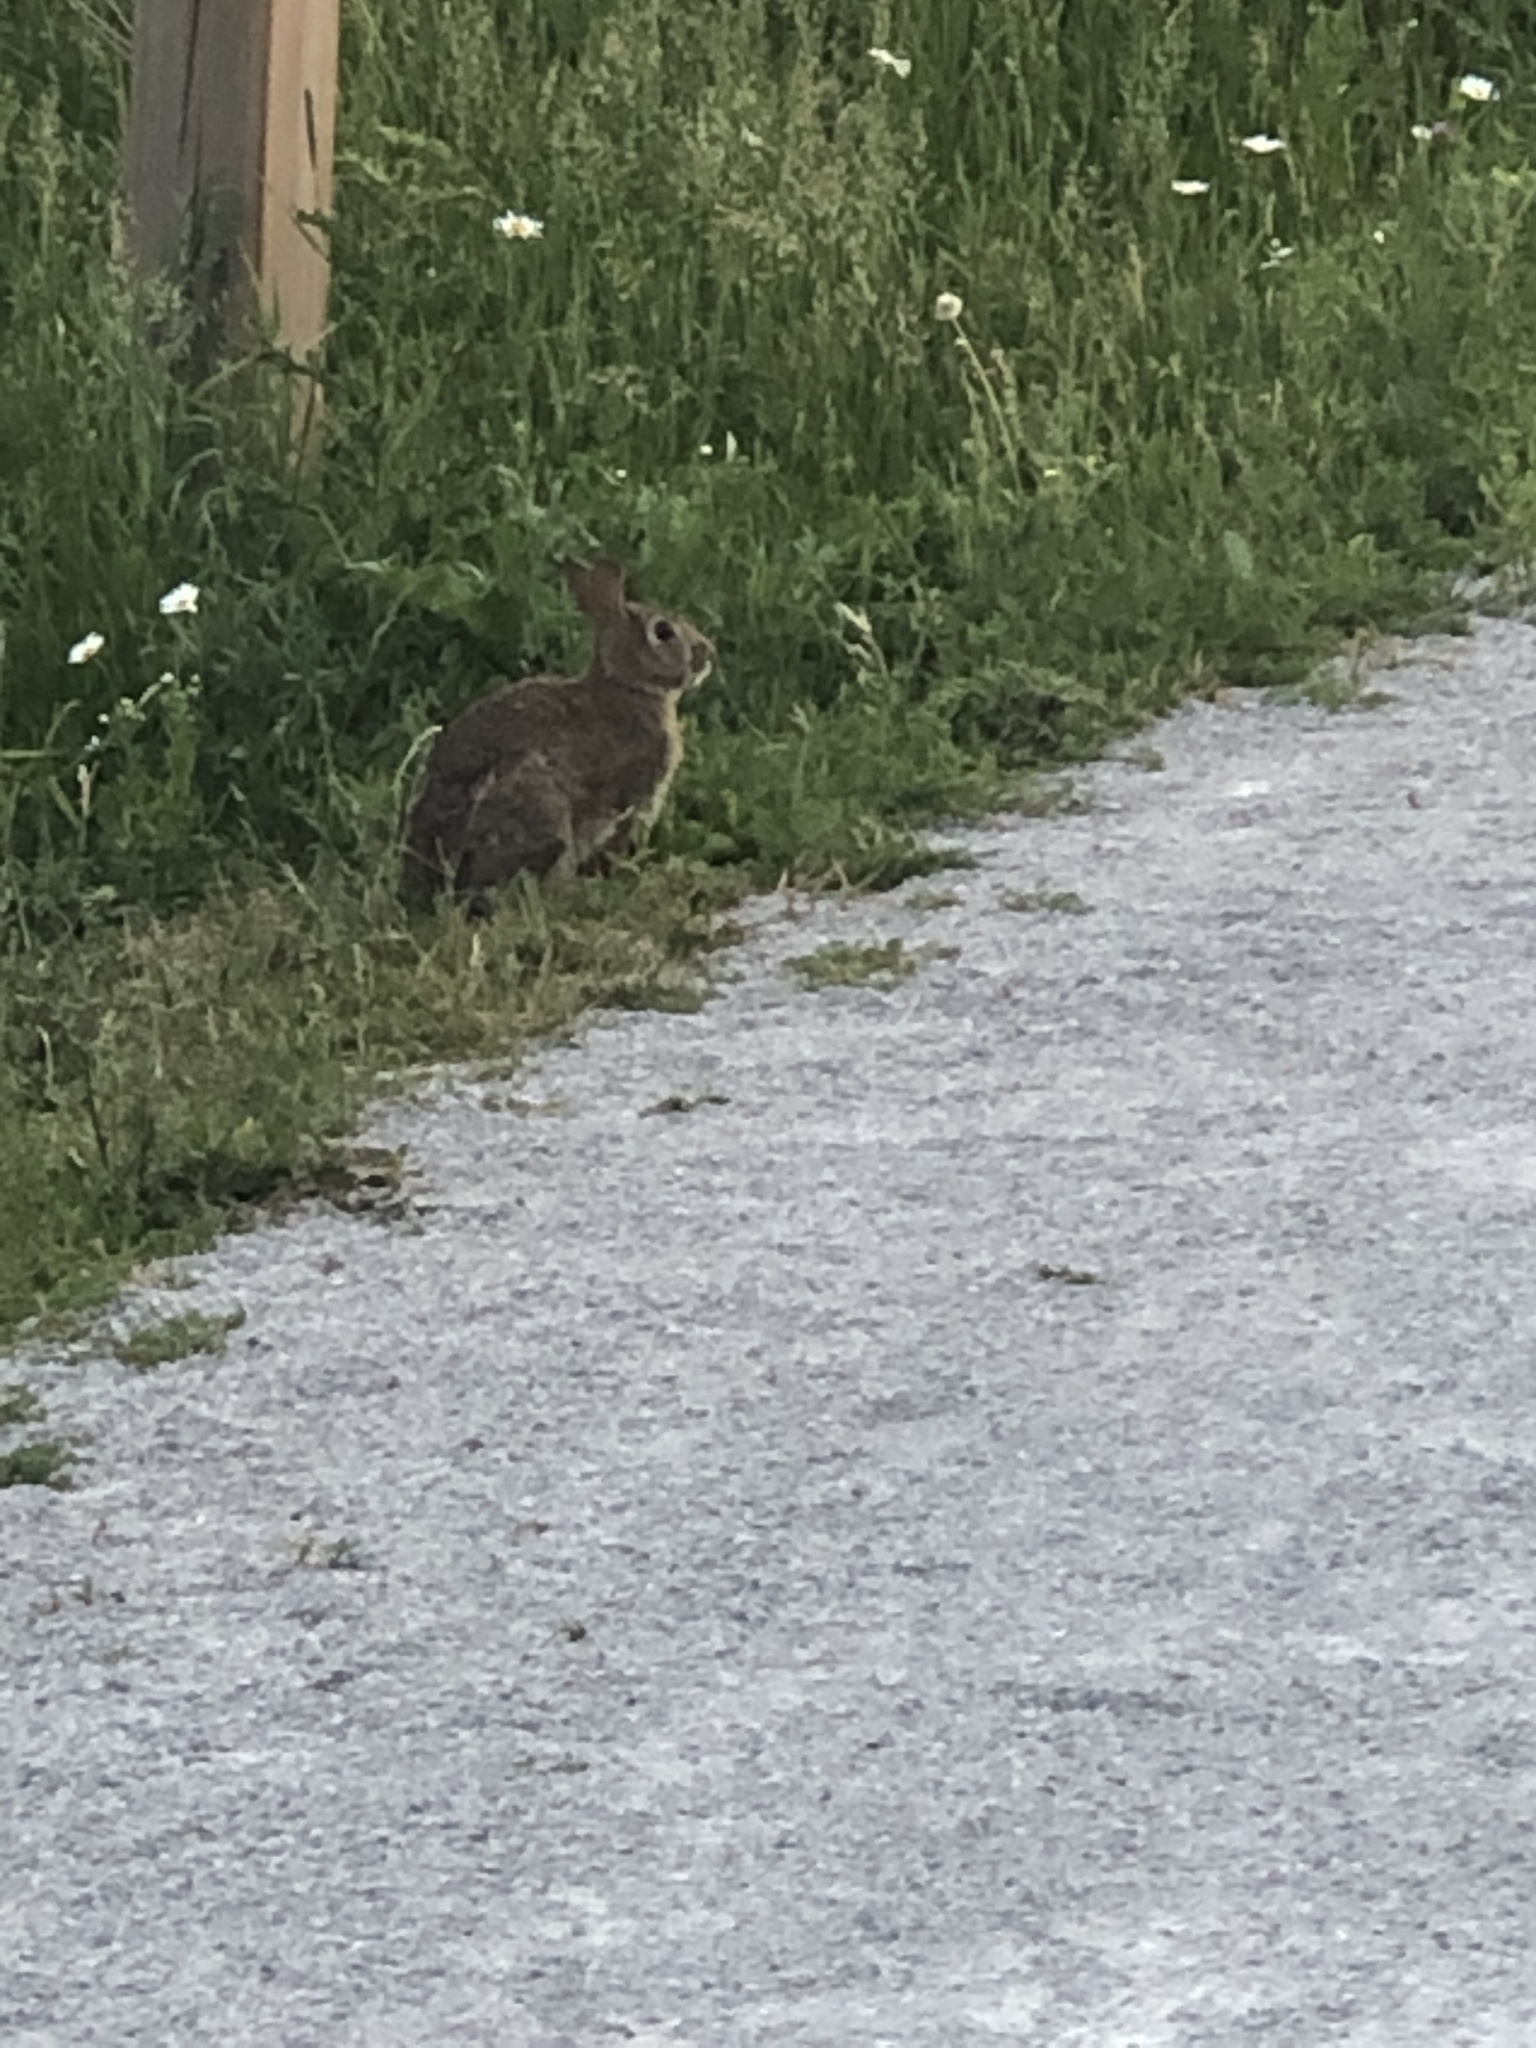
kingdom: Animalia
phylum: Chordata
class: Mammalia
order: Lagomorpha
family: Leporidae
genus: Sylvilagus
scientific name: Sylvilagus floridanus
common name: Eastern cottontail
